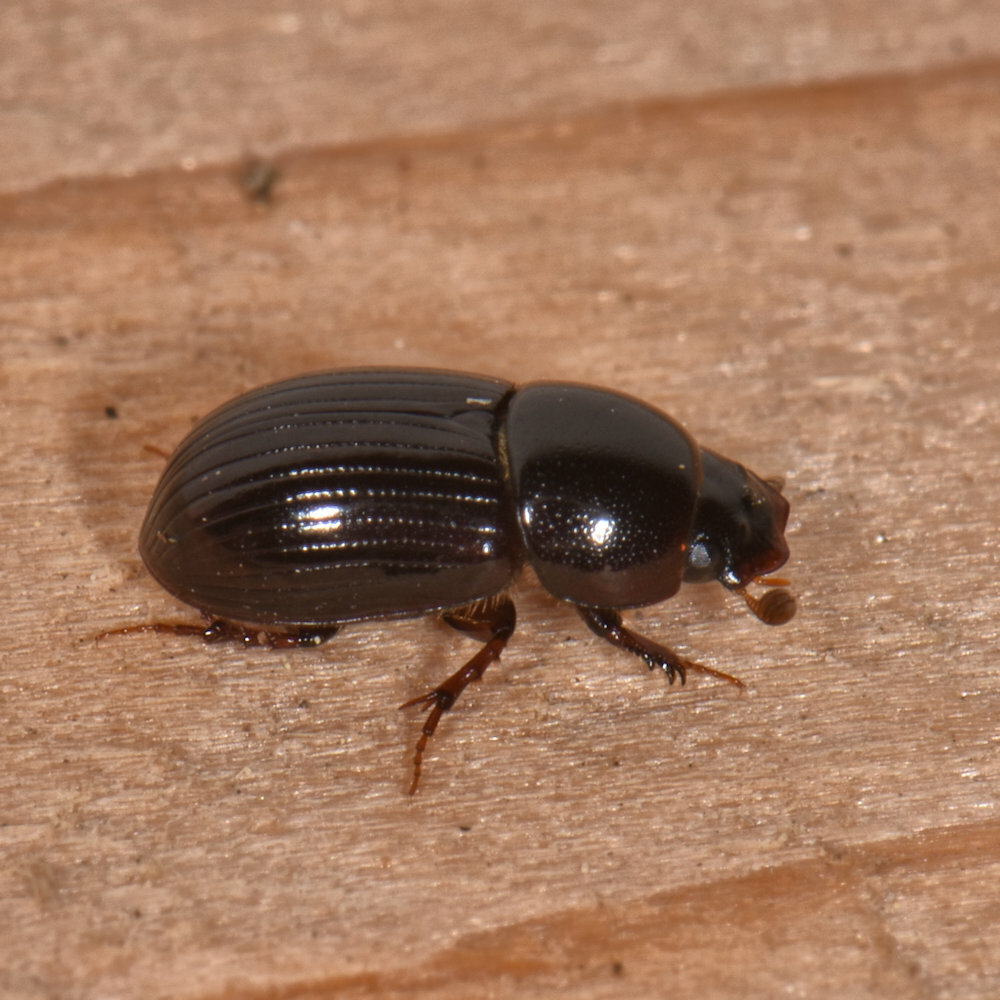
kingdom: Animalia
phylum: Arthropoda
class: Insecta
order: Coleoptera
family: Scarabaeidae
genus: Oscarinus
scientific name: Oscarinus rusicola
